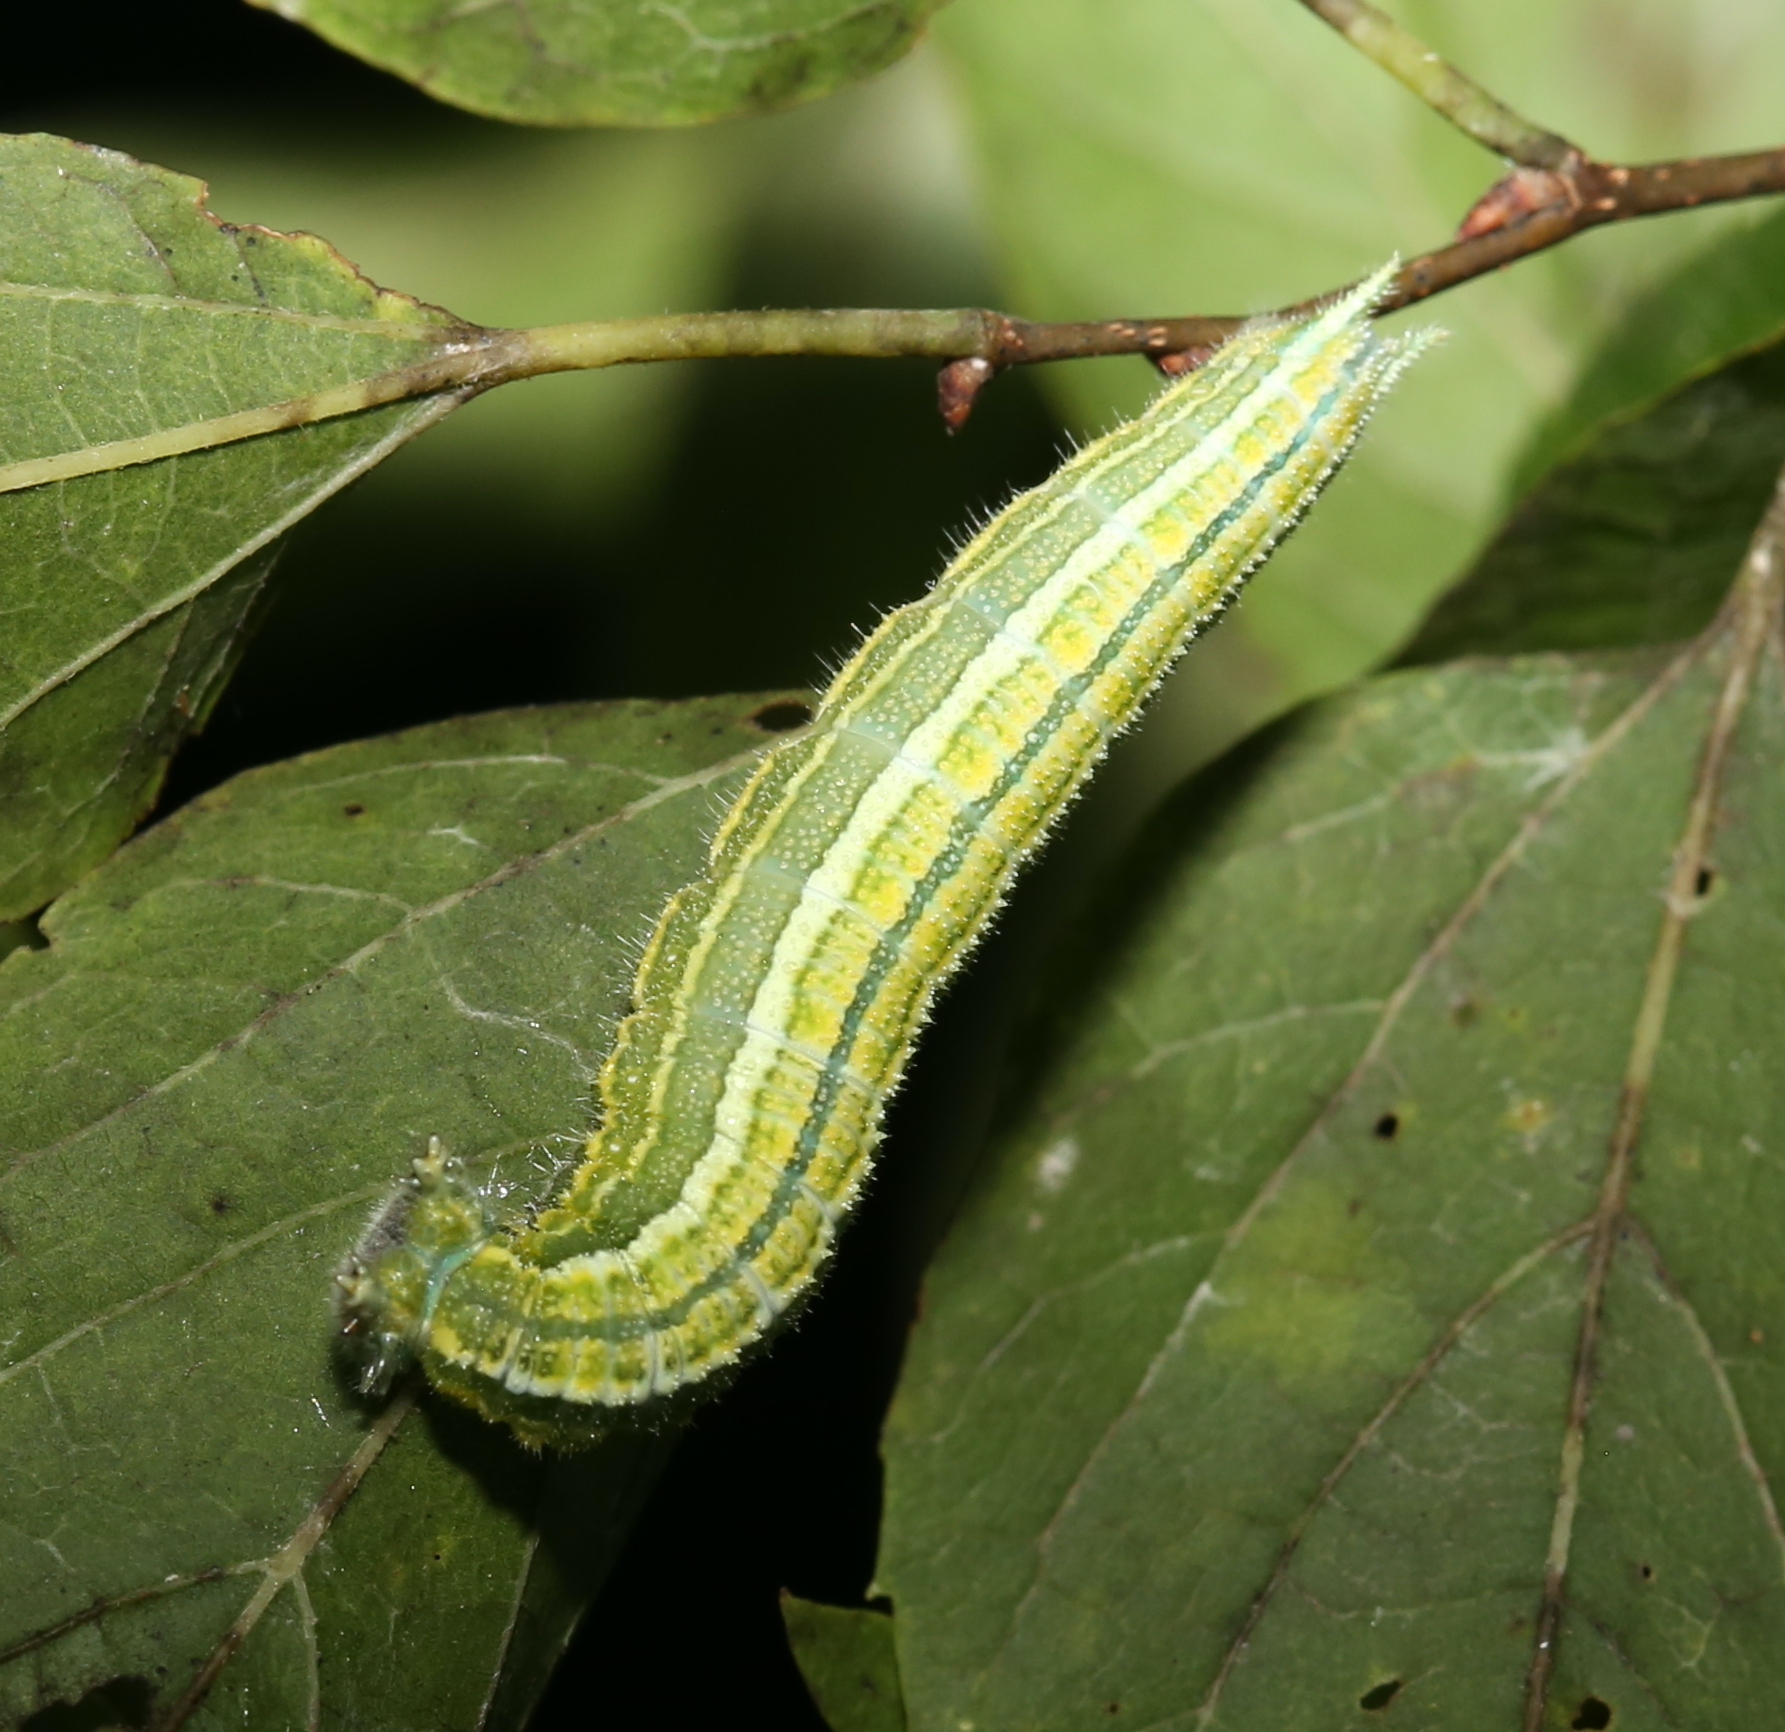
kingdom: Animalia
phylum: Arthropoda
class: Insecta
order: Lepidoptera
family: Nymphalidae
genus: Asterocampa
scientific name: Asterocampa clyton
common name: Tawny emperor
